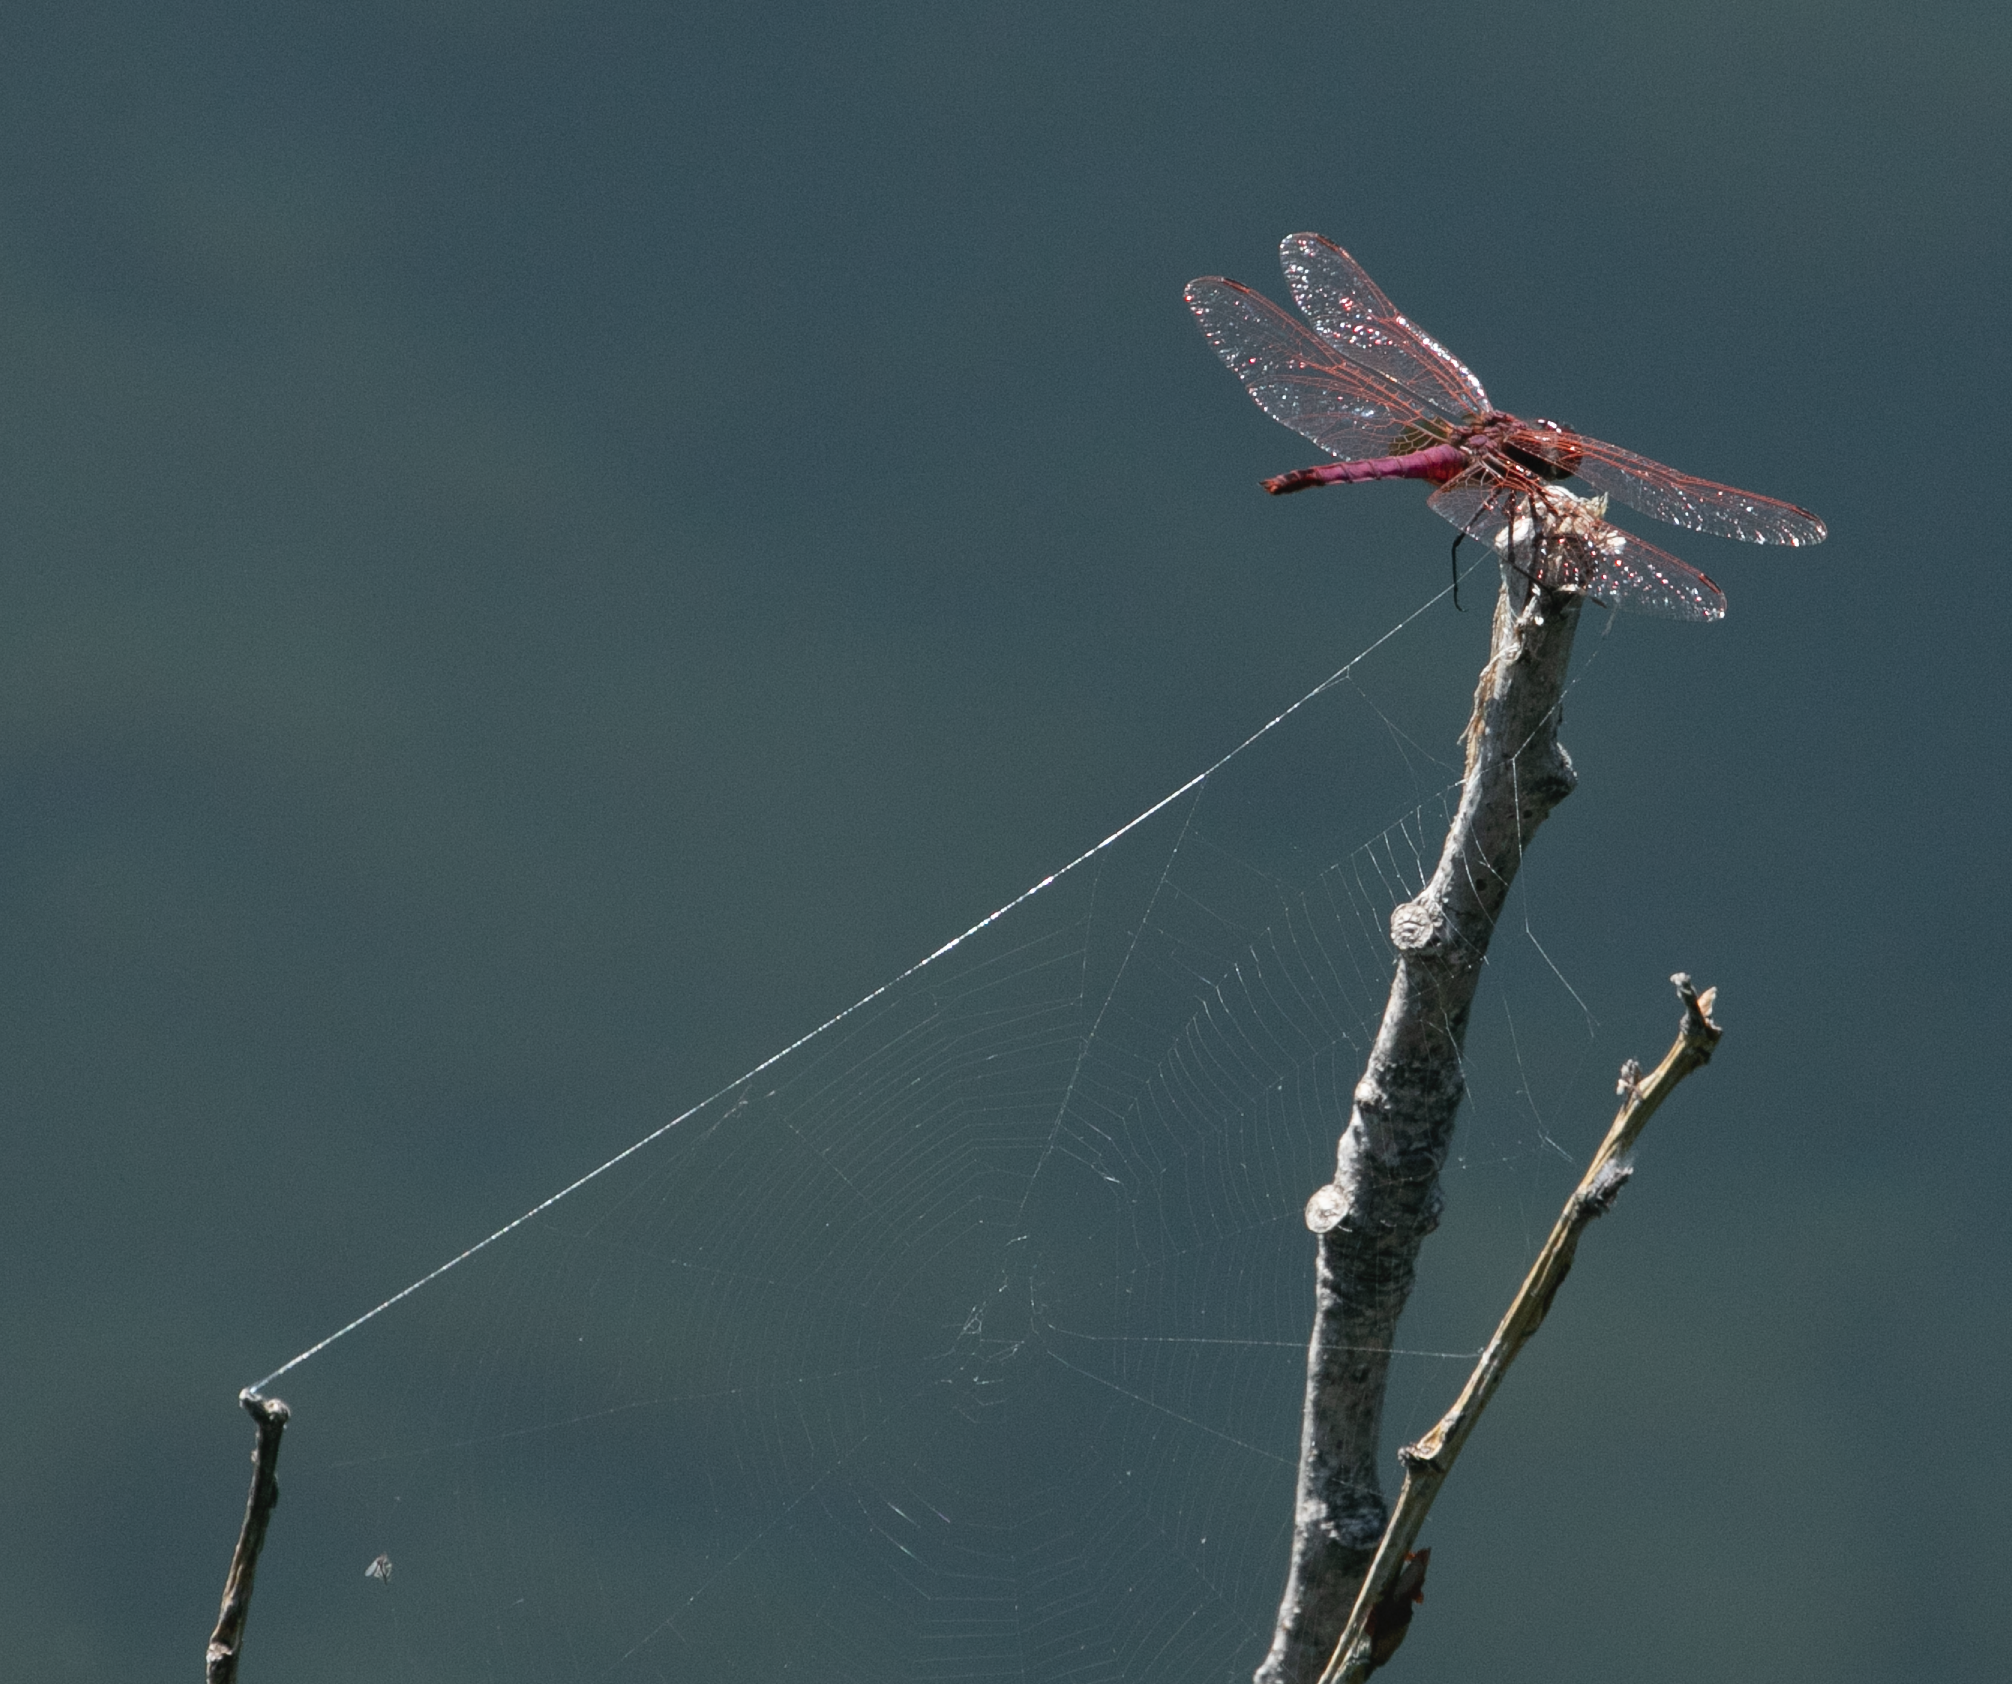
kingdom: Animalia
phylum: Arthropoda
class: Insecta
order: Odonata
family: Libellulidae
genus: Trithemis
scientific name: Trithemis annulata
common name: Violet dropwing
